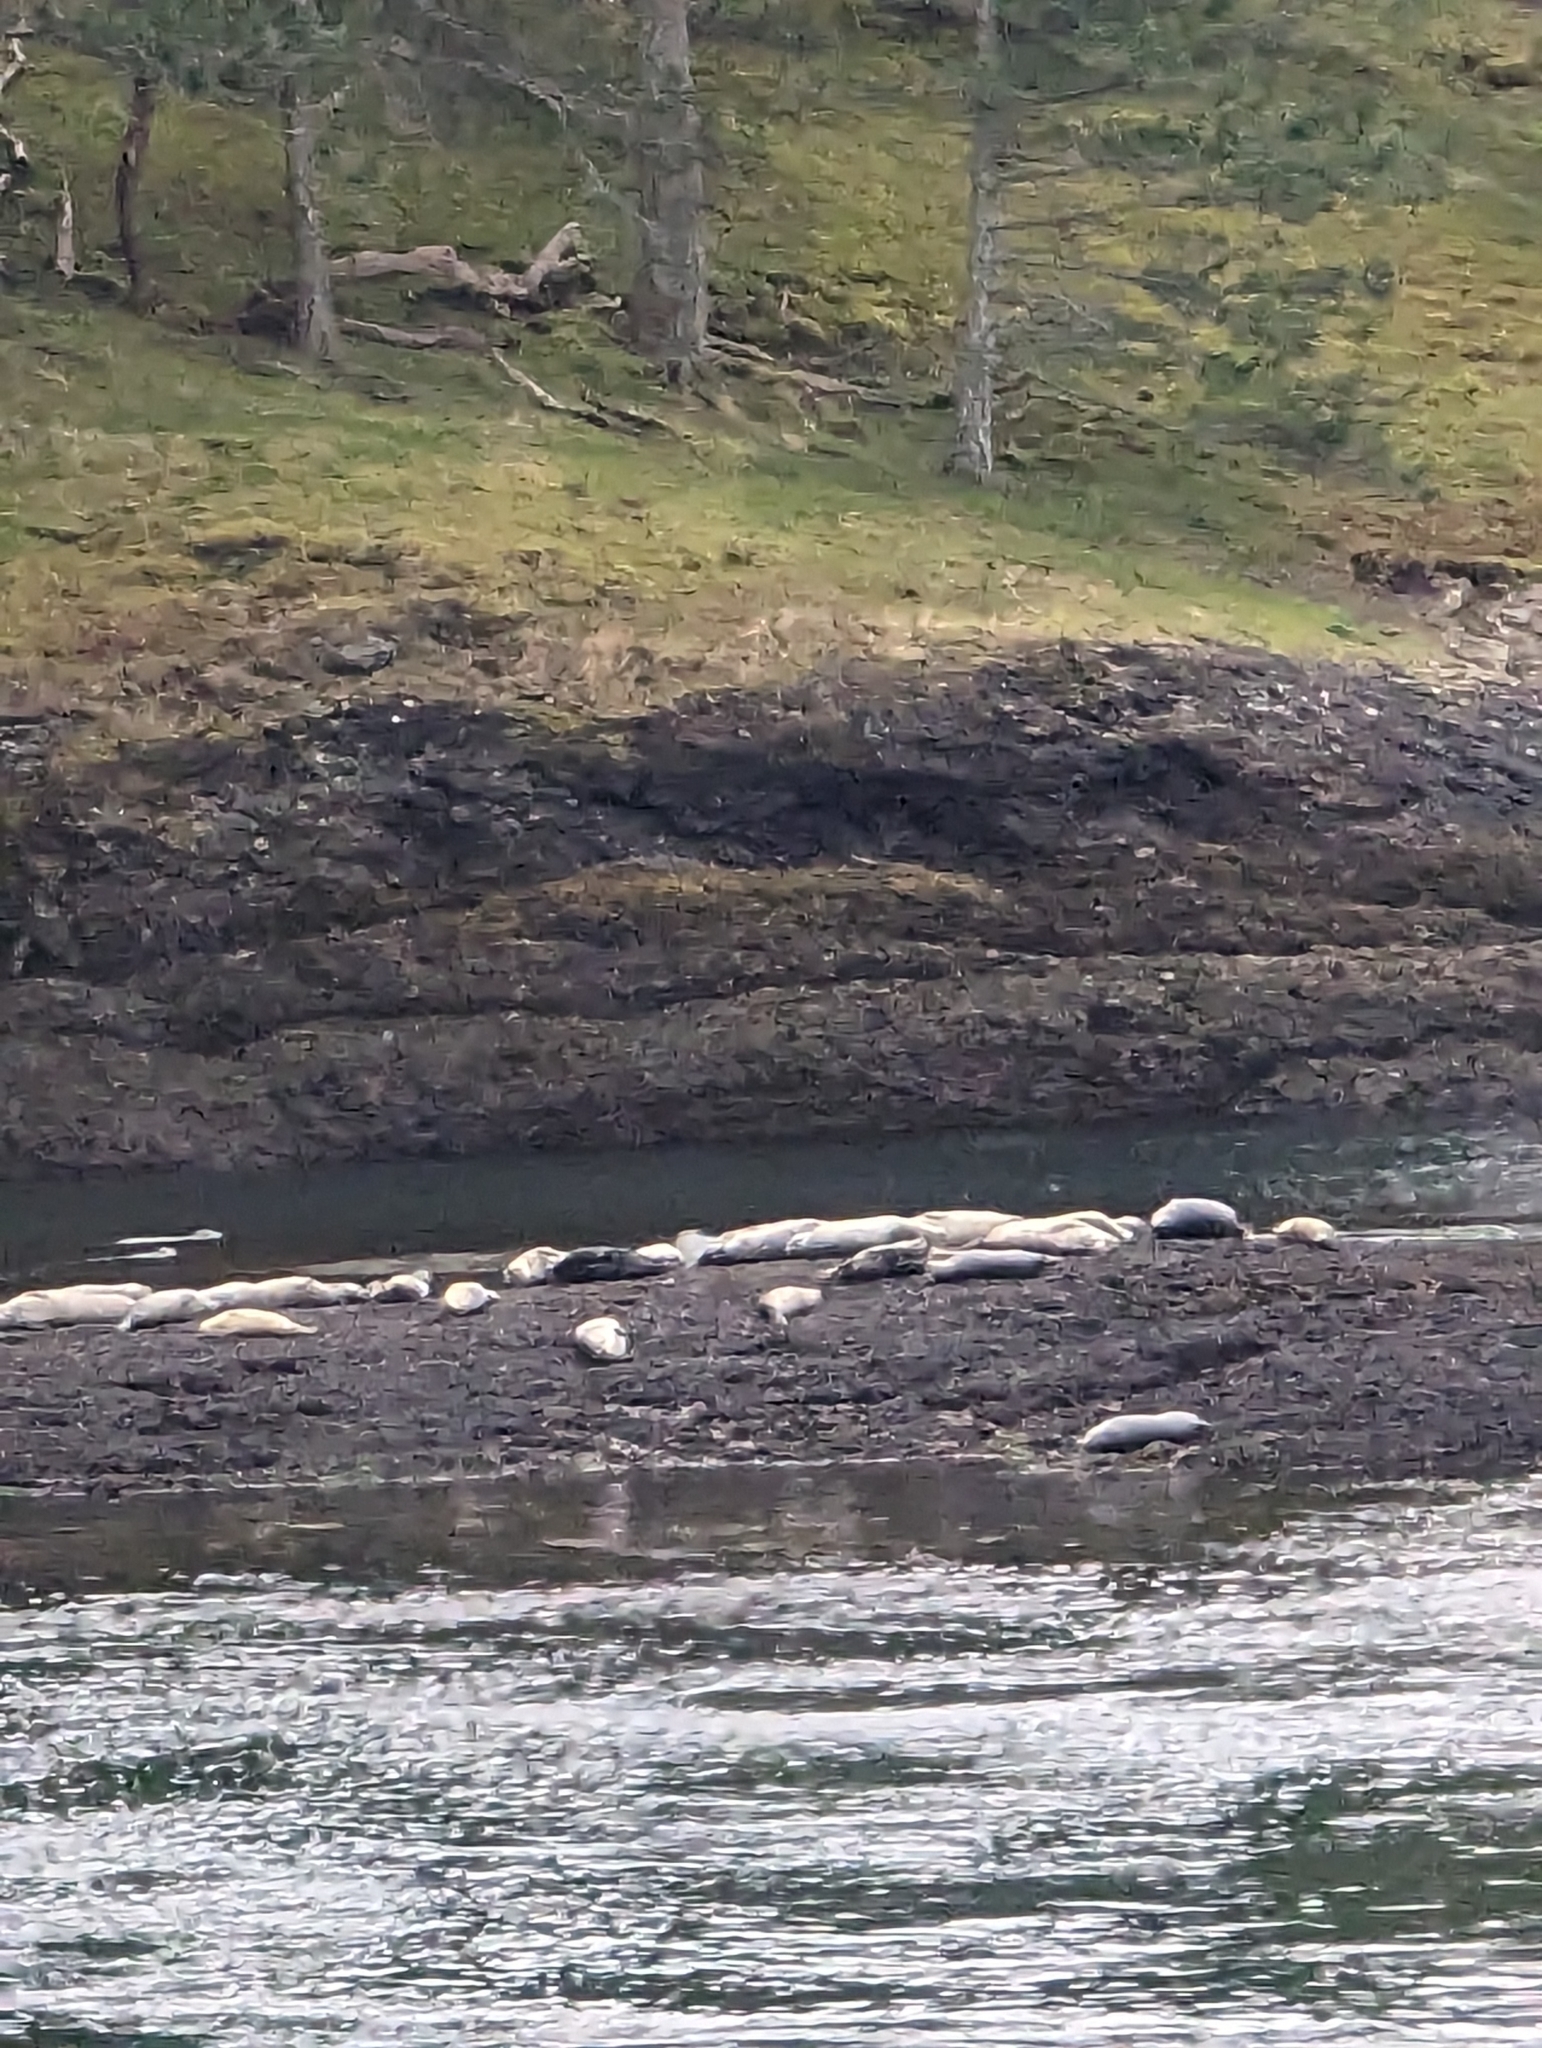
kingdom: Animalia
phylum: Chordata
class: Mammalia
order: Carnivora
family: Phocidae
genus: Phoca
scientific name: Phoca vitulina
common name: Harbor seal
